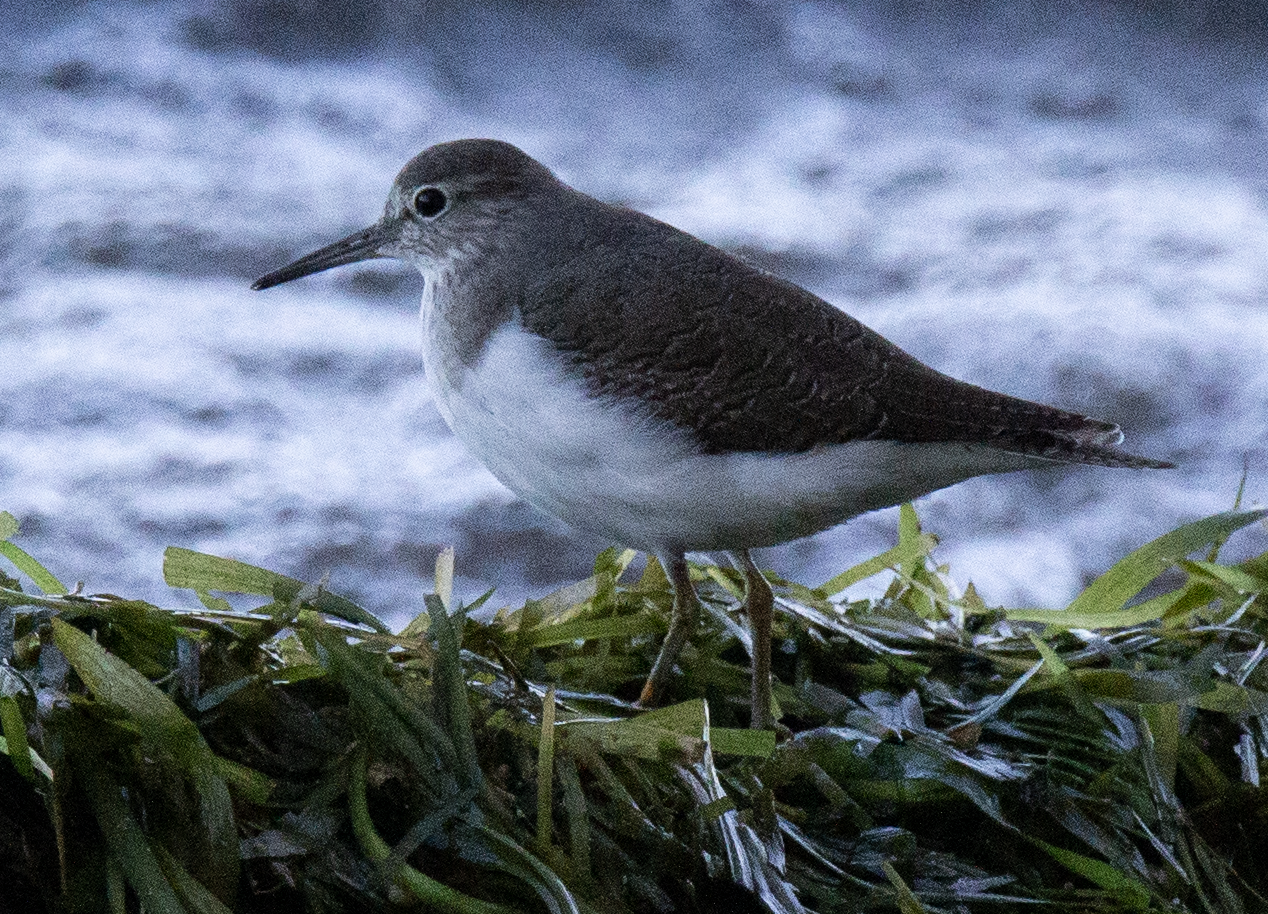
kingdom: Animalia
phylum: Chordata
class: Aves
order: Charadriiformes
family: Scolopacidae
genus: Actitis
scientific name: Actitis hypoleucos
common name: Common sandpiper
